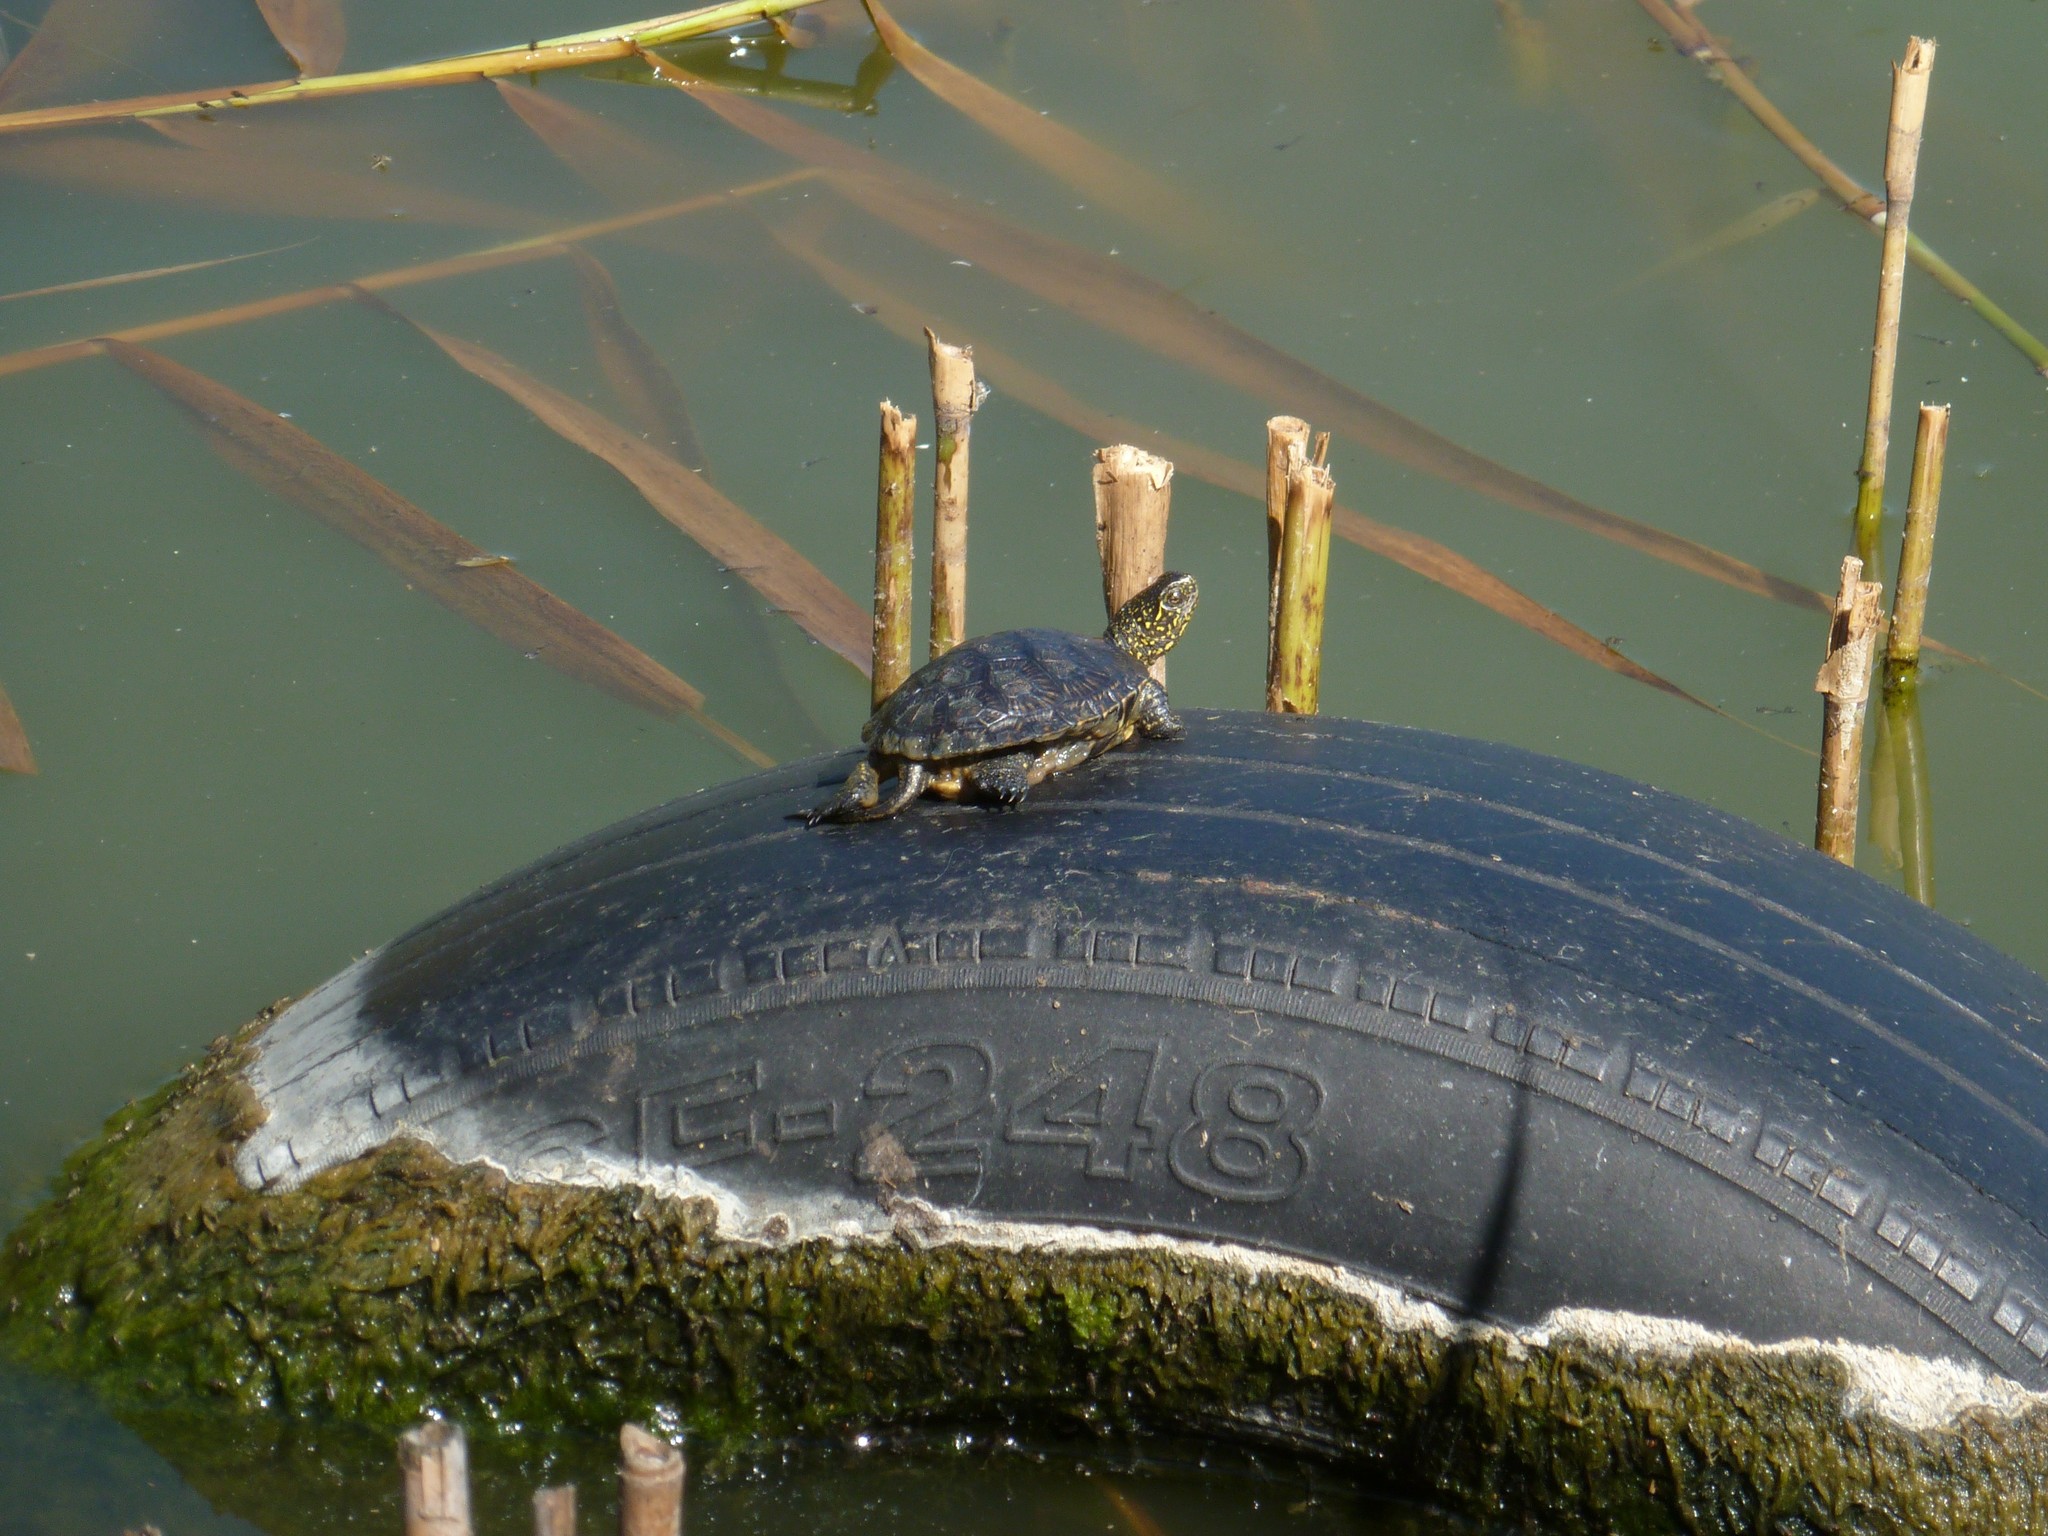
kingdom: Animalia
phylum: Chordata
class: Testudines
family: Emydidae
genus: Emys
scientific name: Emys orbicularis
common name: European pond turtle
